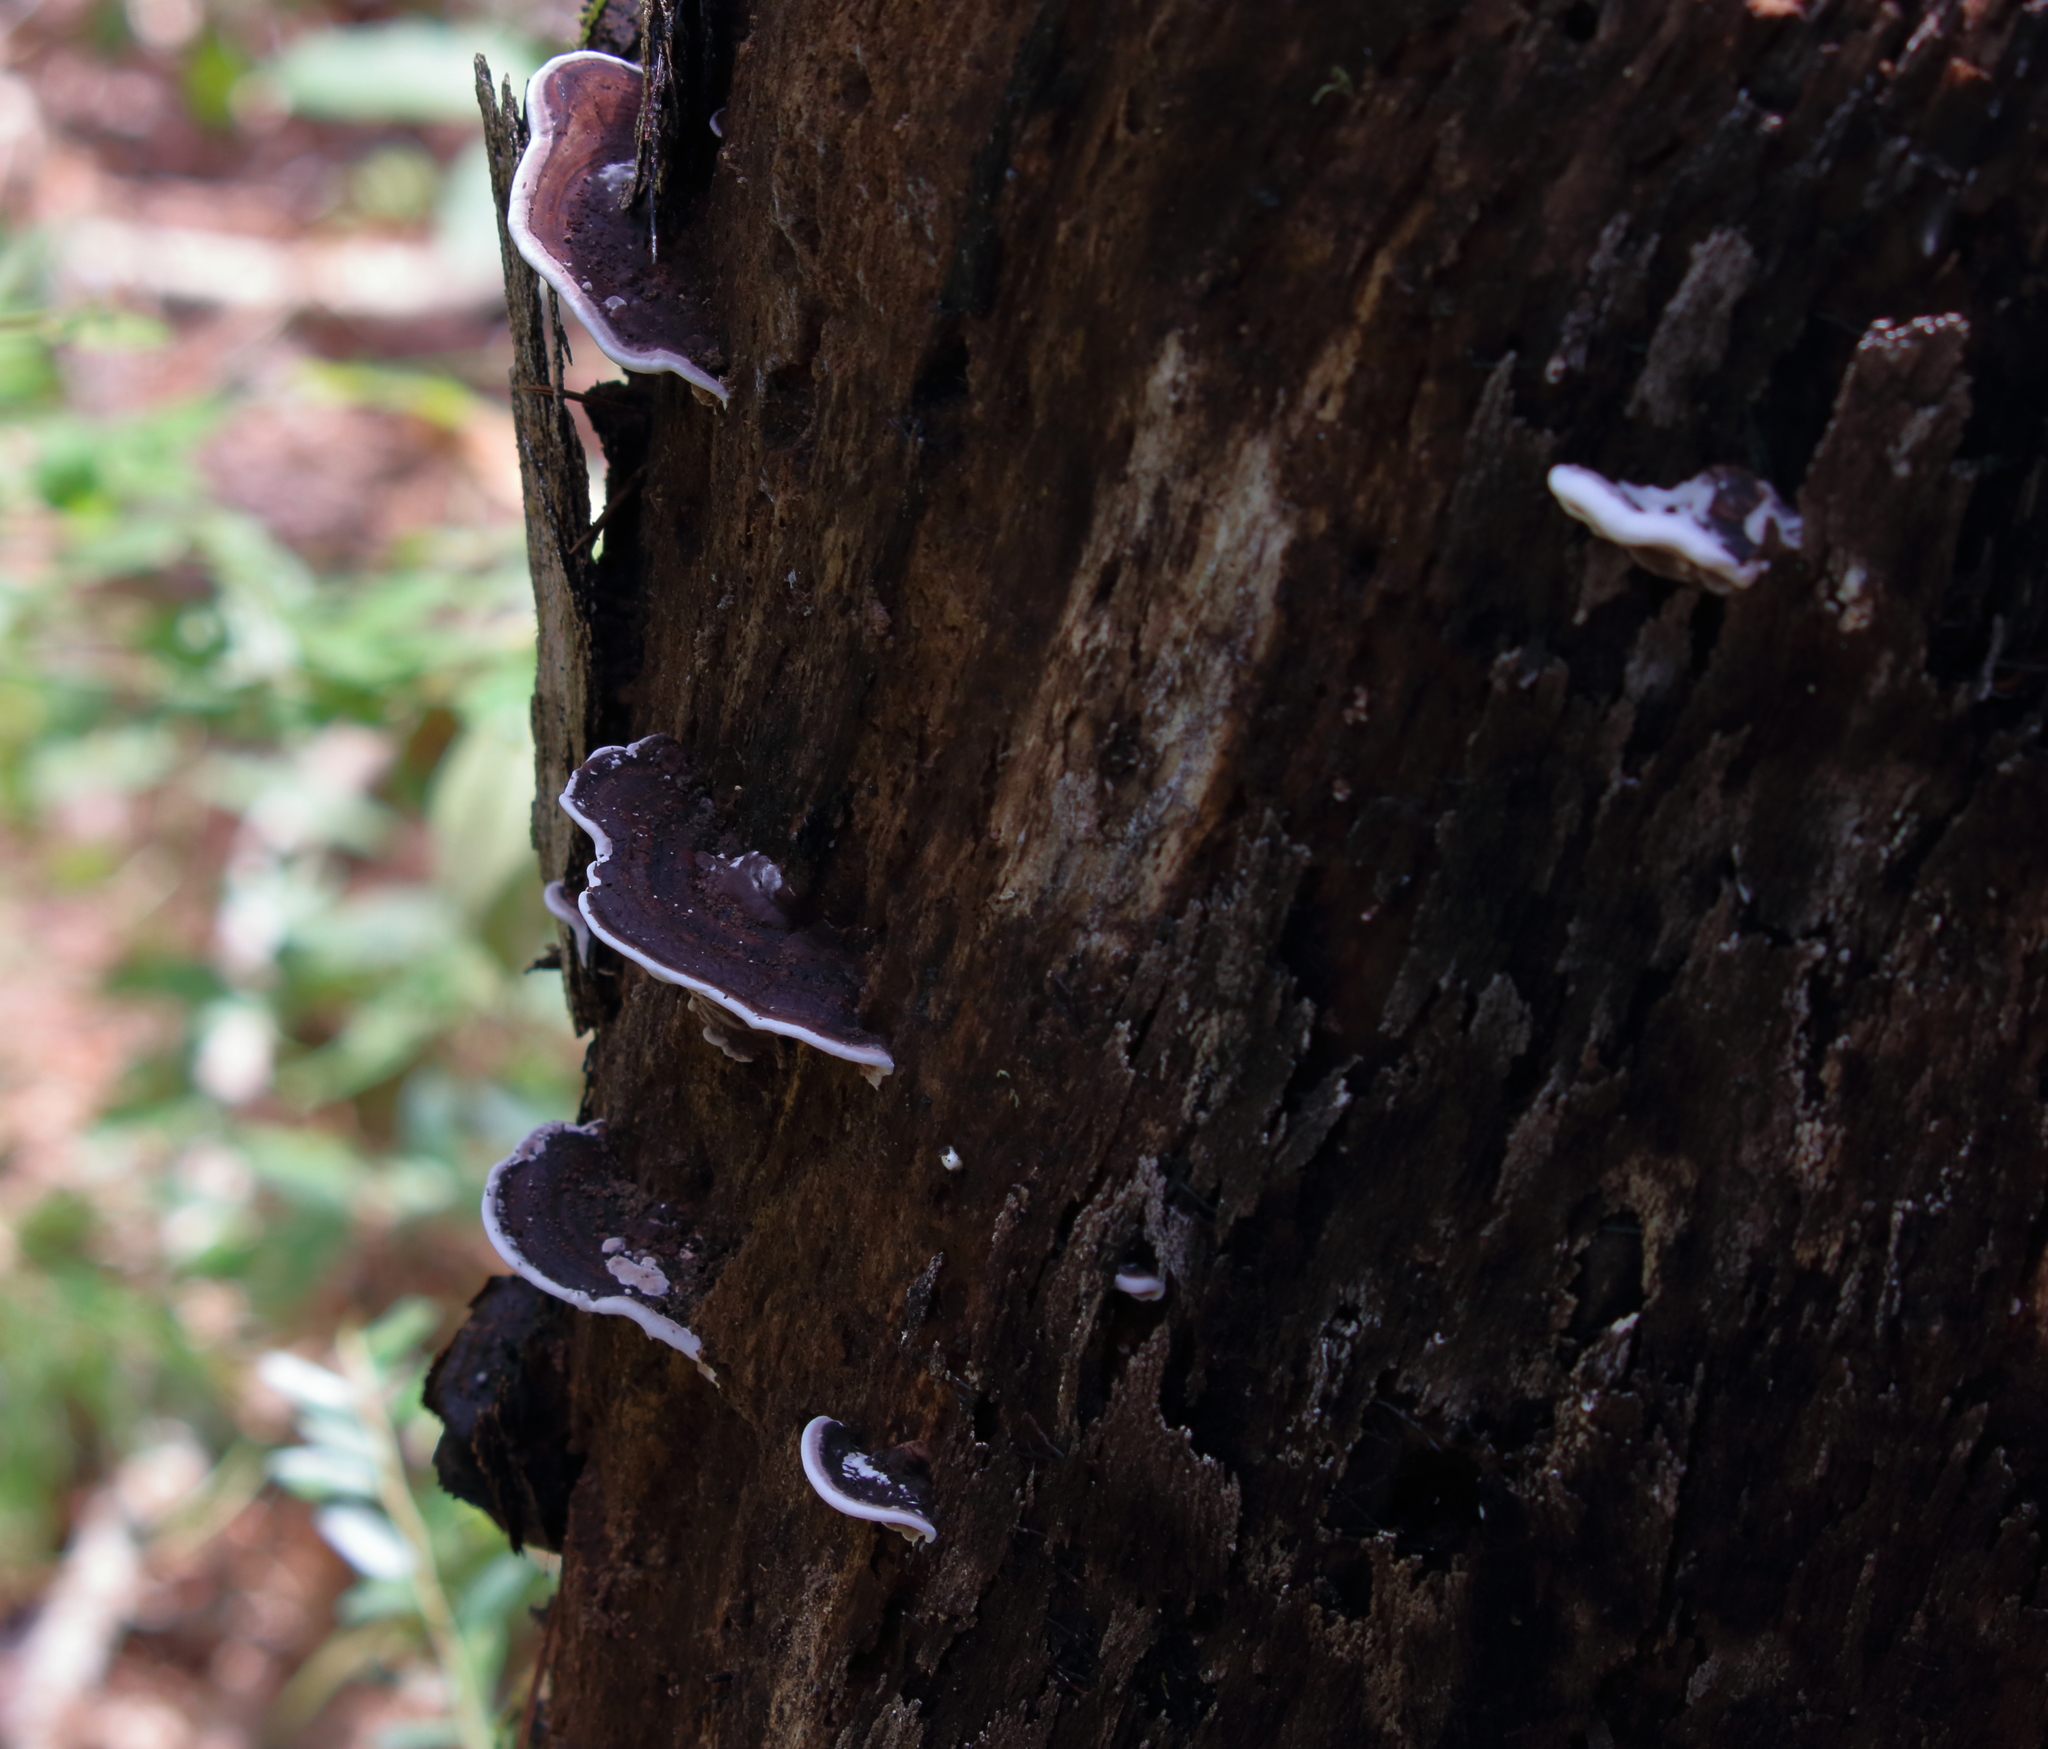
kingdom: Fungi
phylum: Basidiomycota
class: Agaricomycetes
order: Polyporales
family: Steccherinaceae
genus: Nigroporus
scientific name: Nigroporus vinosus
